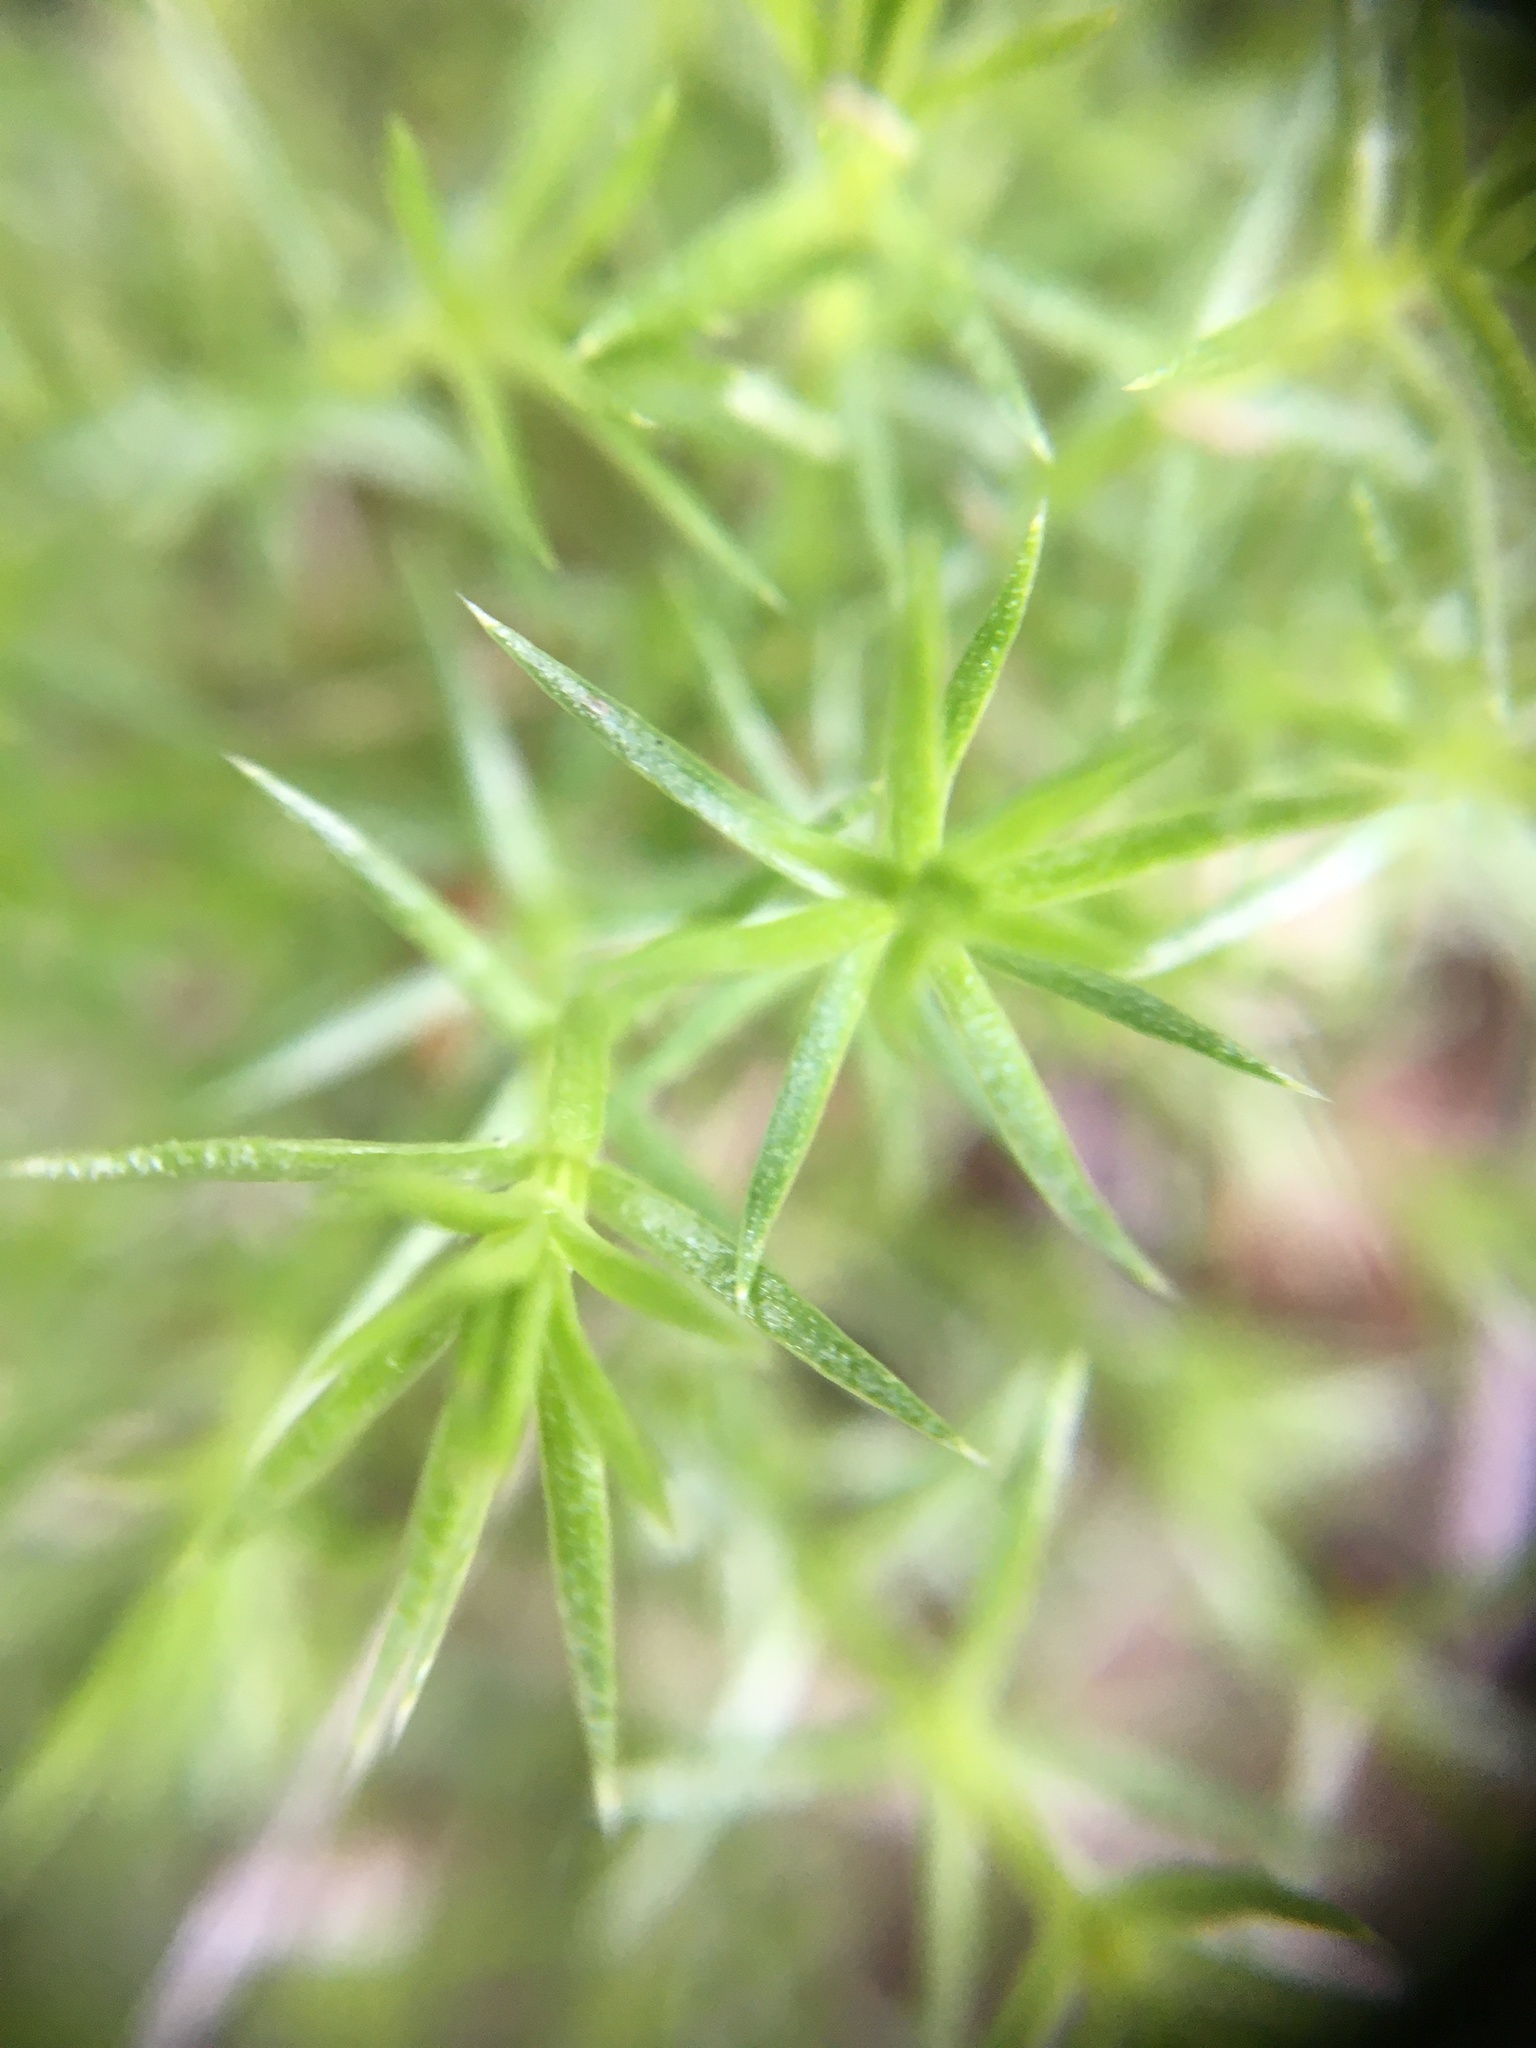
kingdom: Plantae
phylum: Tracheophyta
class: Magnoliopsida
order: Gentianales
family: Rubiaceae
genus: Galium
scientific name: Galium andrewsii
